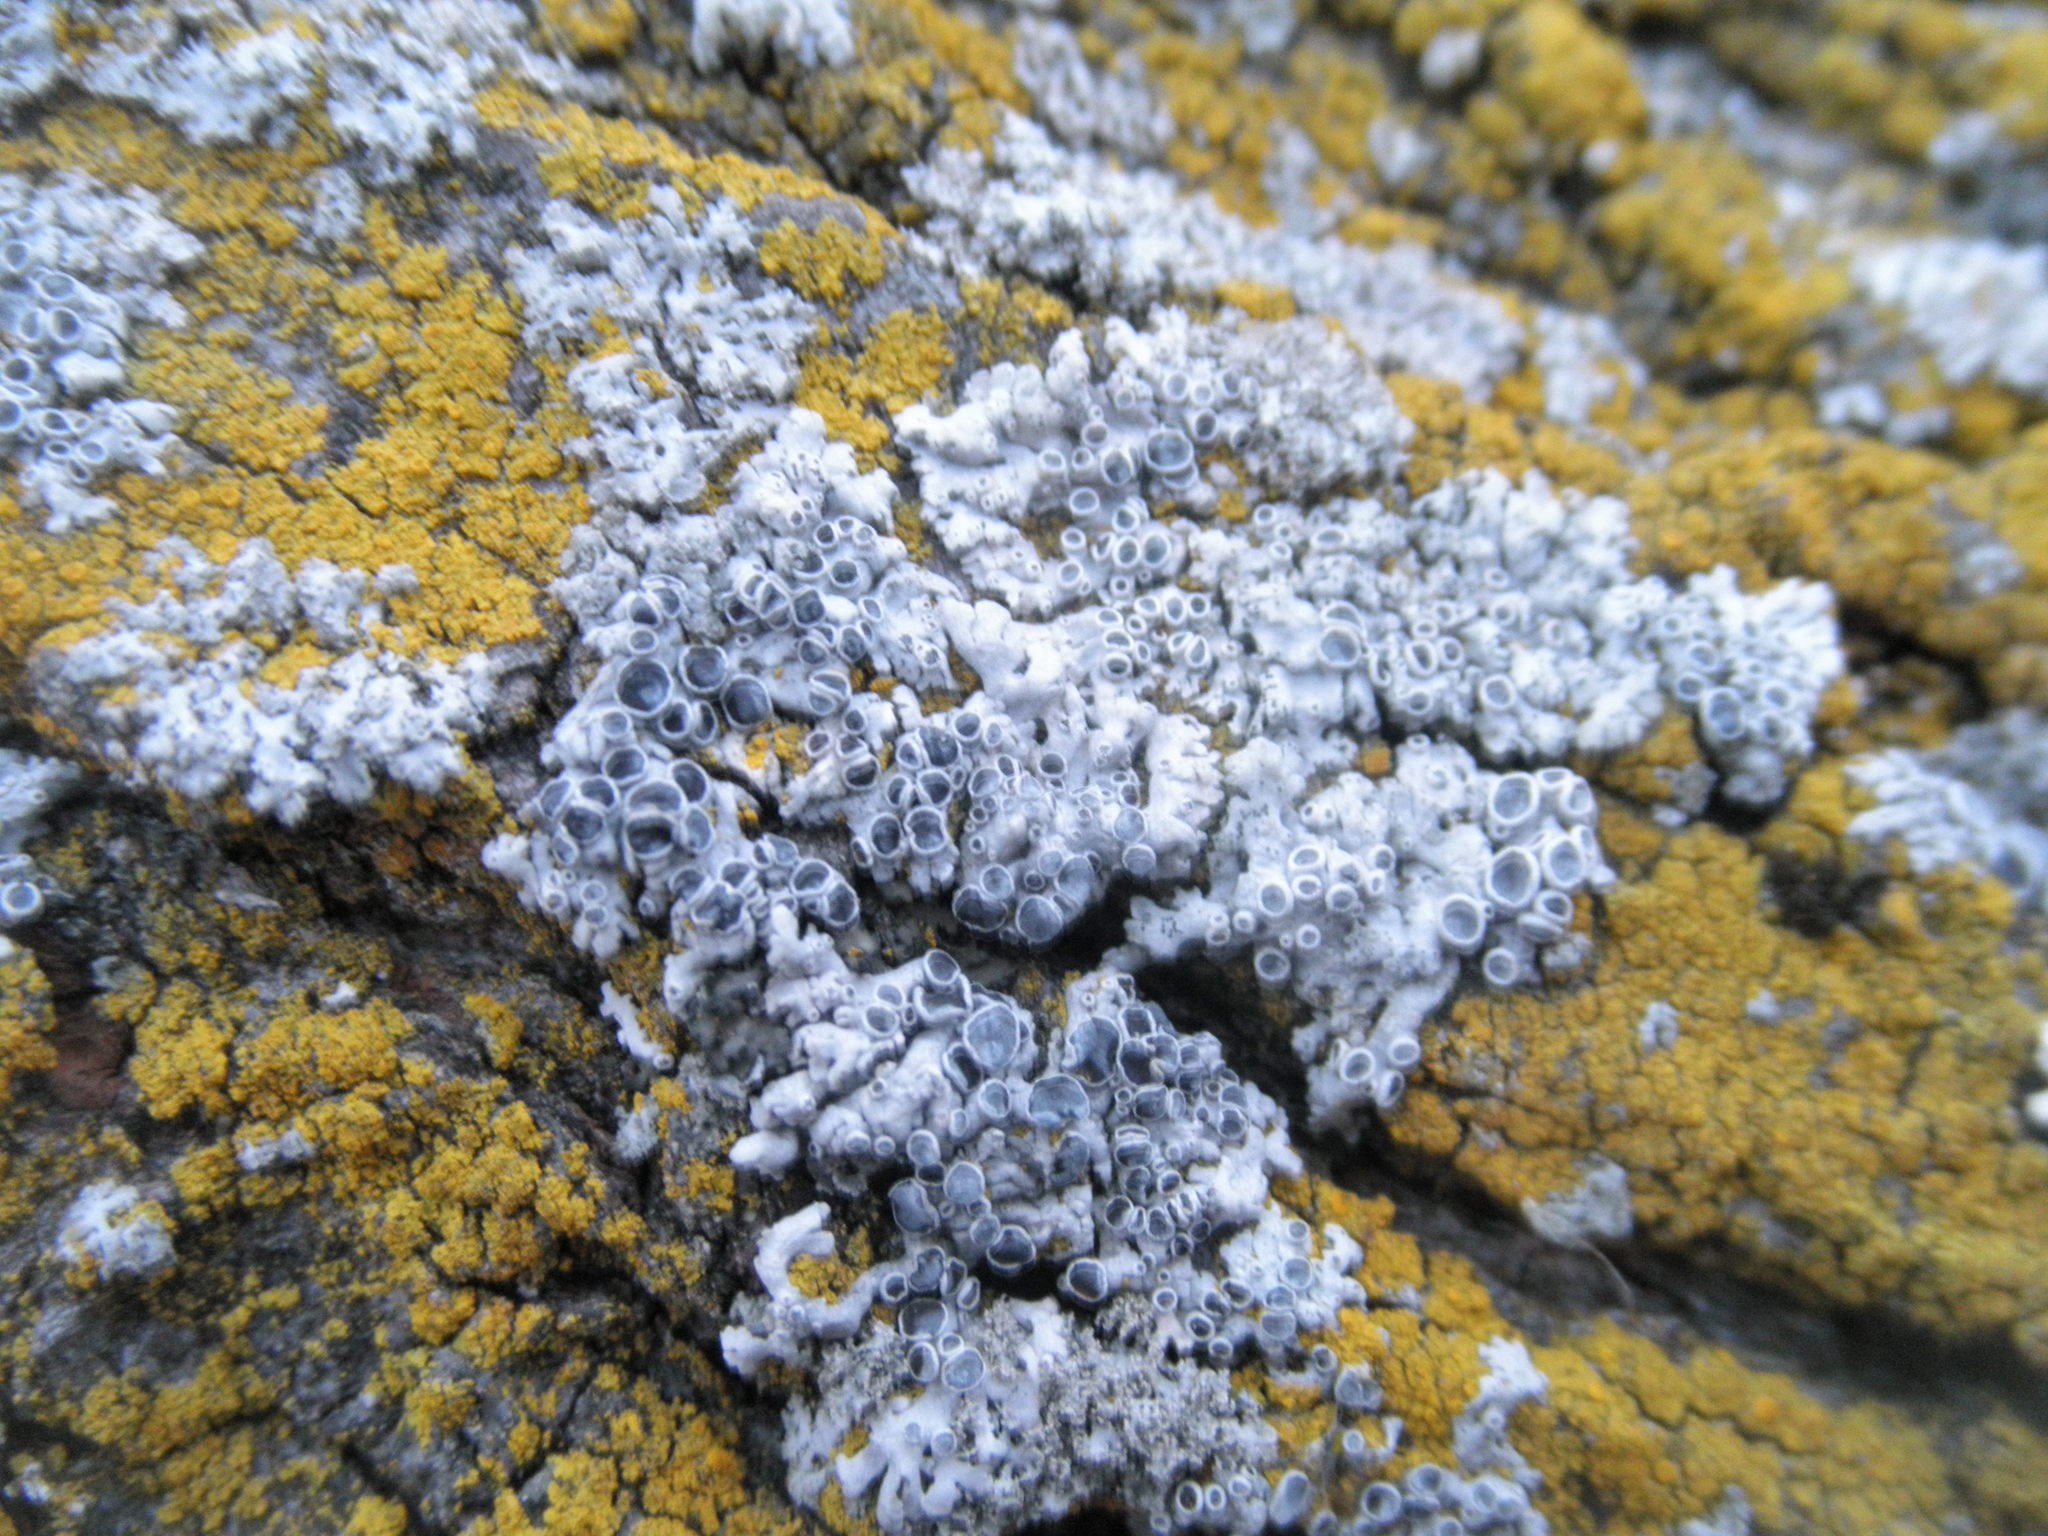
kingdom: Fungi
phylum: Ascomycota
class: Lecanoromycetes
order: Caliciales
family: Physciaceae
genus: Physcia
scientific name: Physcia
